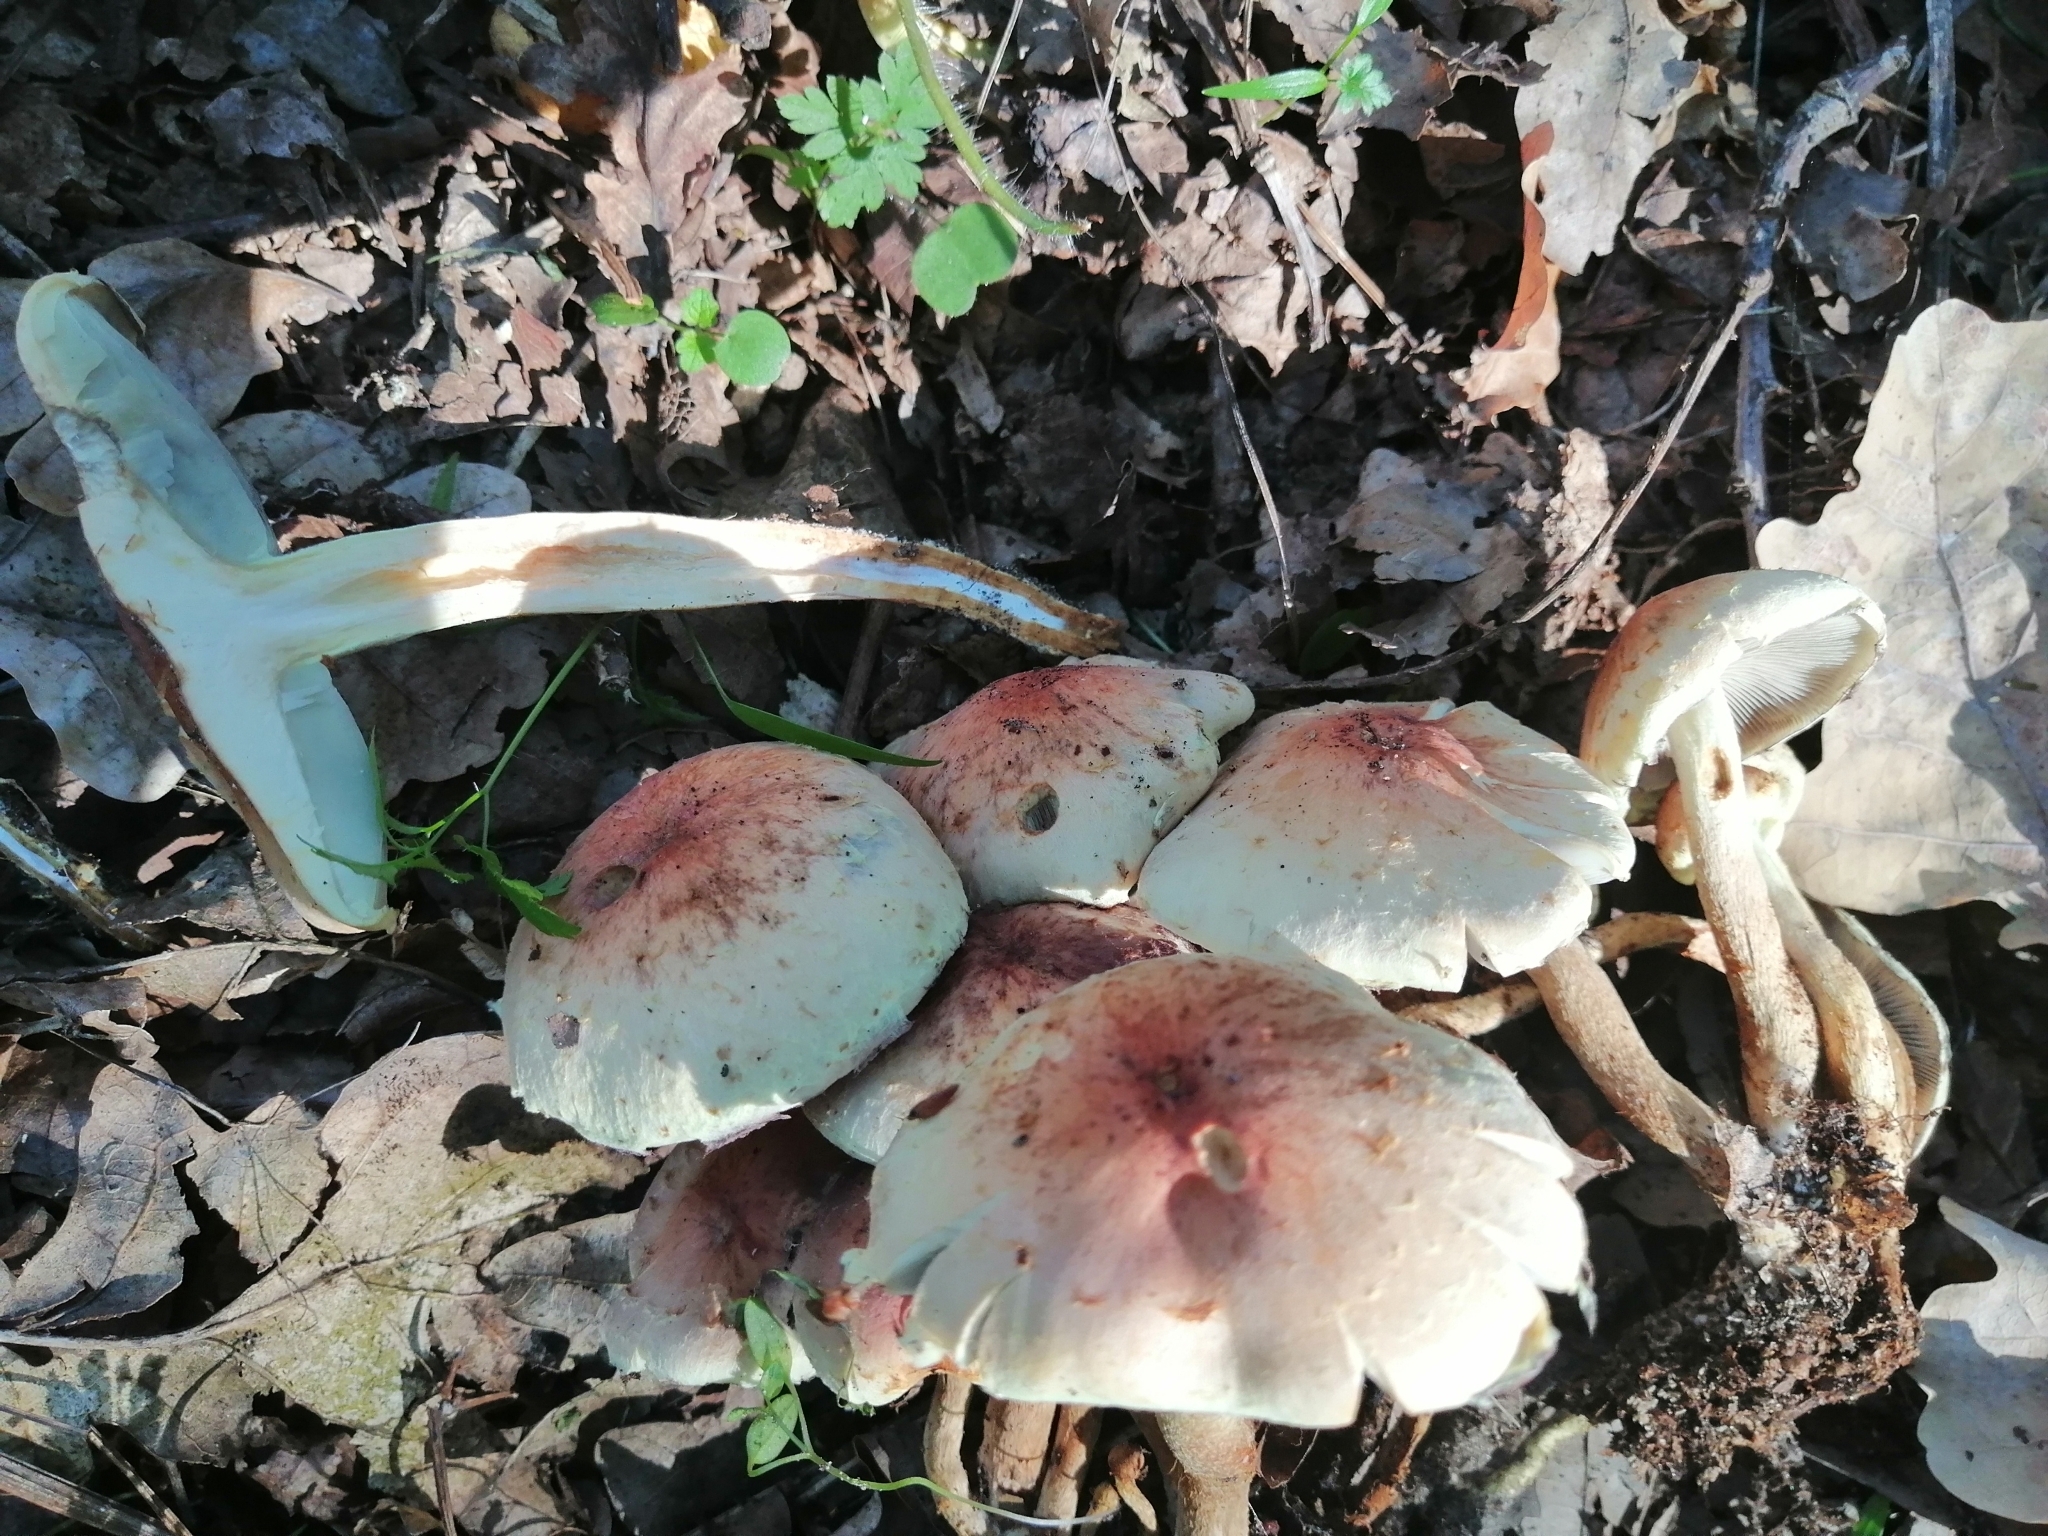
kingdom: Fungi
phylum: Basidiomycota
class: Agaricomycetes
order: Agaricales
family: Strophariaceae
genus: Hypholoma
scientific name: Hypholoma lateritium
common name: Brick caps
